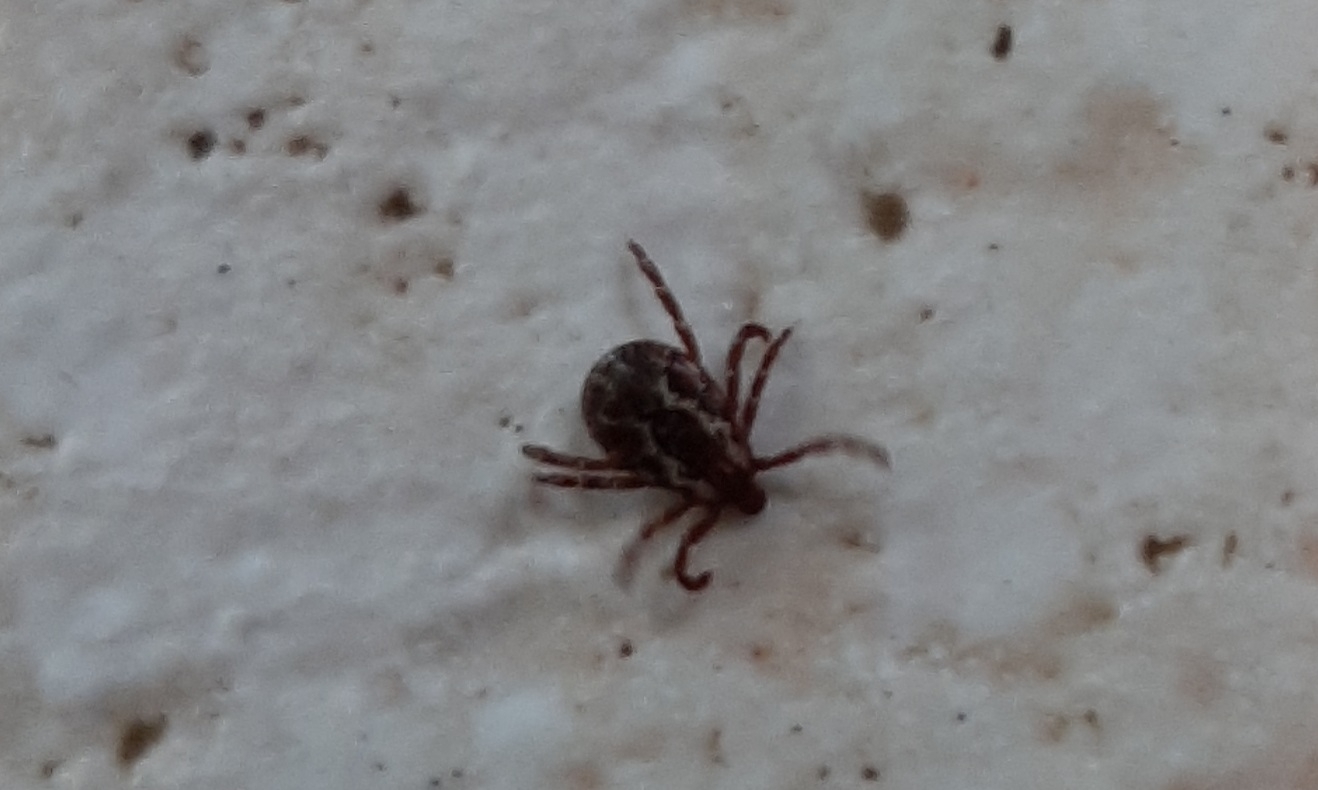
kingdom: Animalia
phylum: Arthropoda
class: Arachnida
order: Ixodida
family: Ixodidae
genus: Dermacentor
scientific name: Dermacentor variabilis
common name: American dog tick
